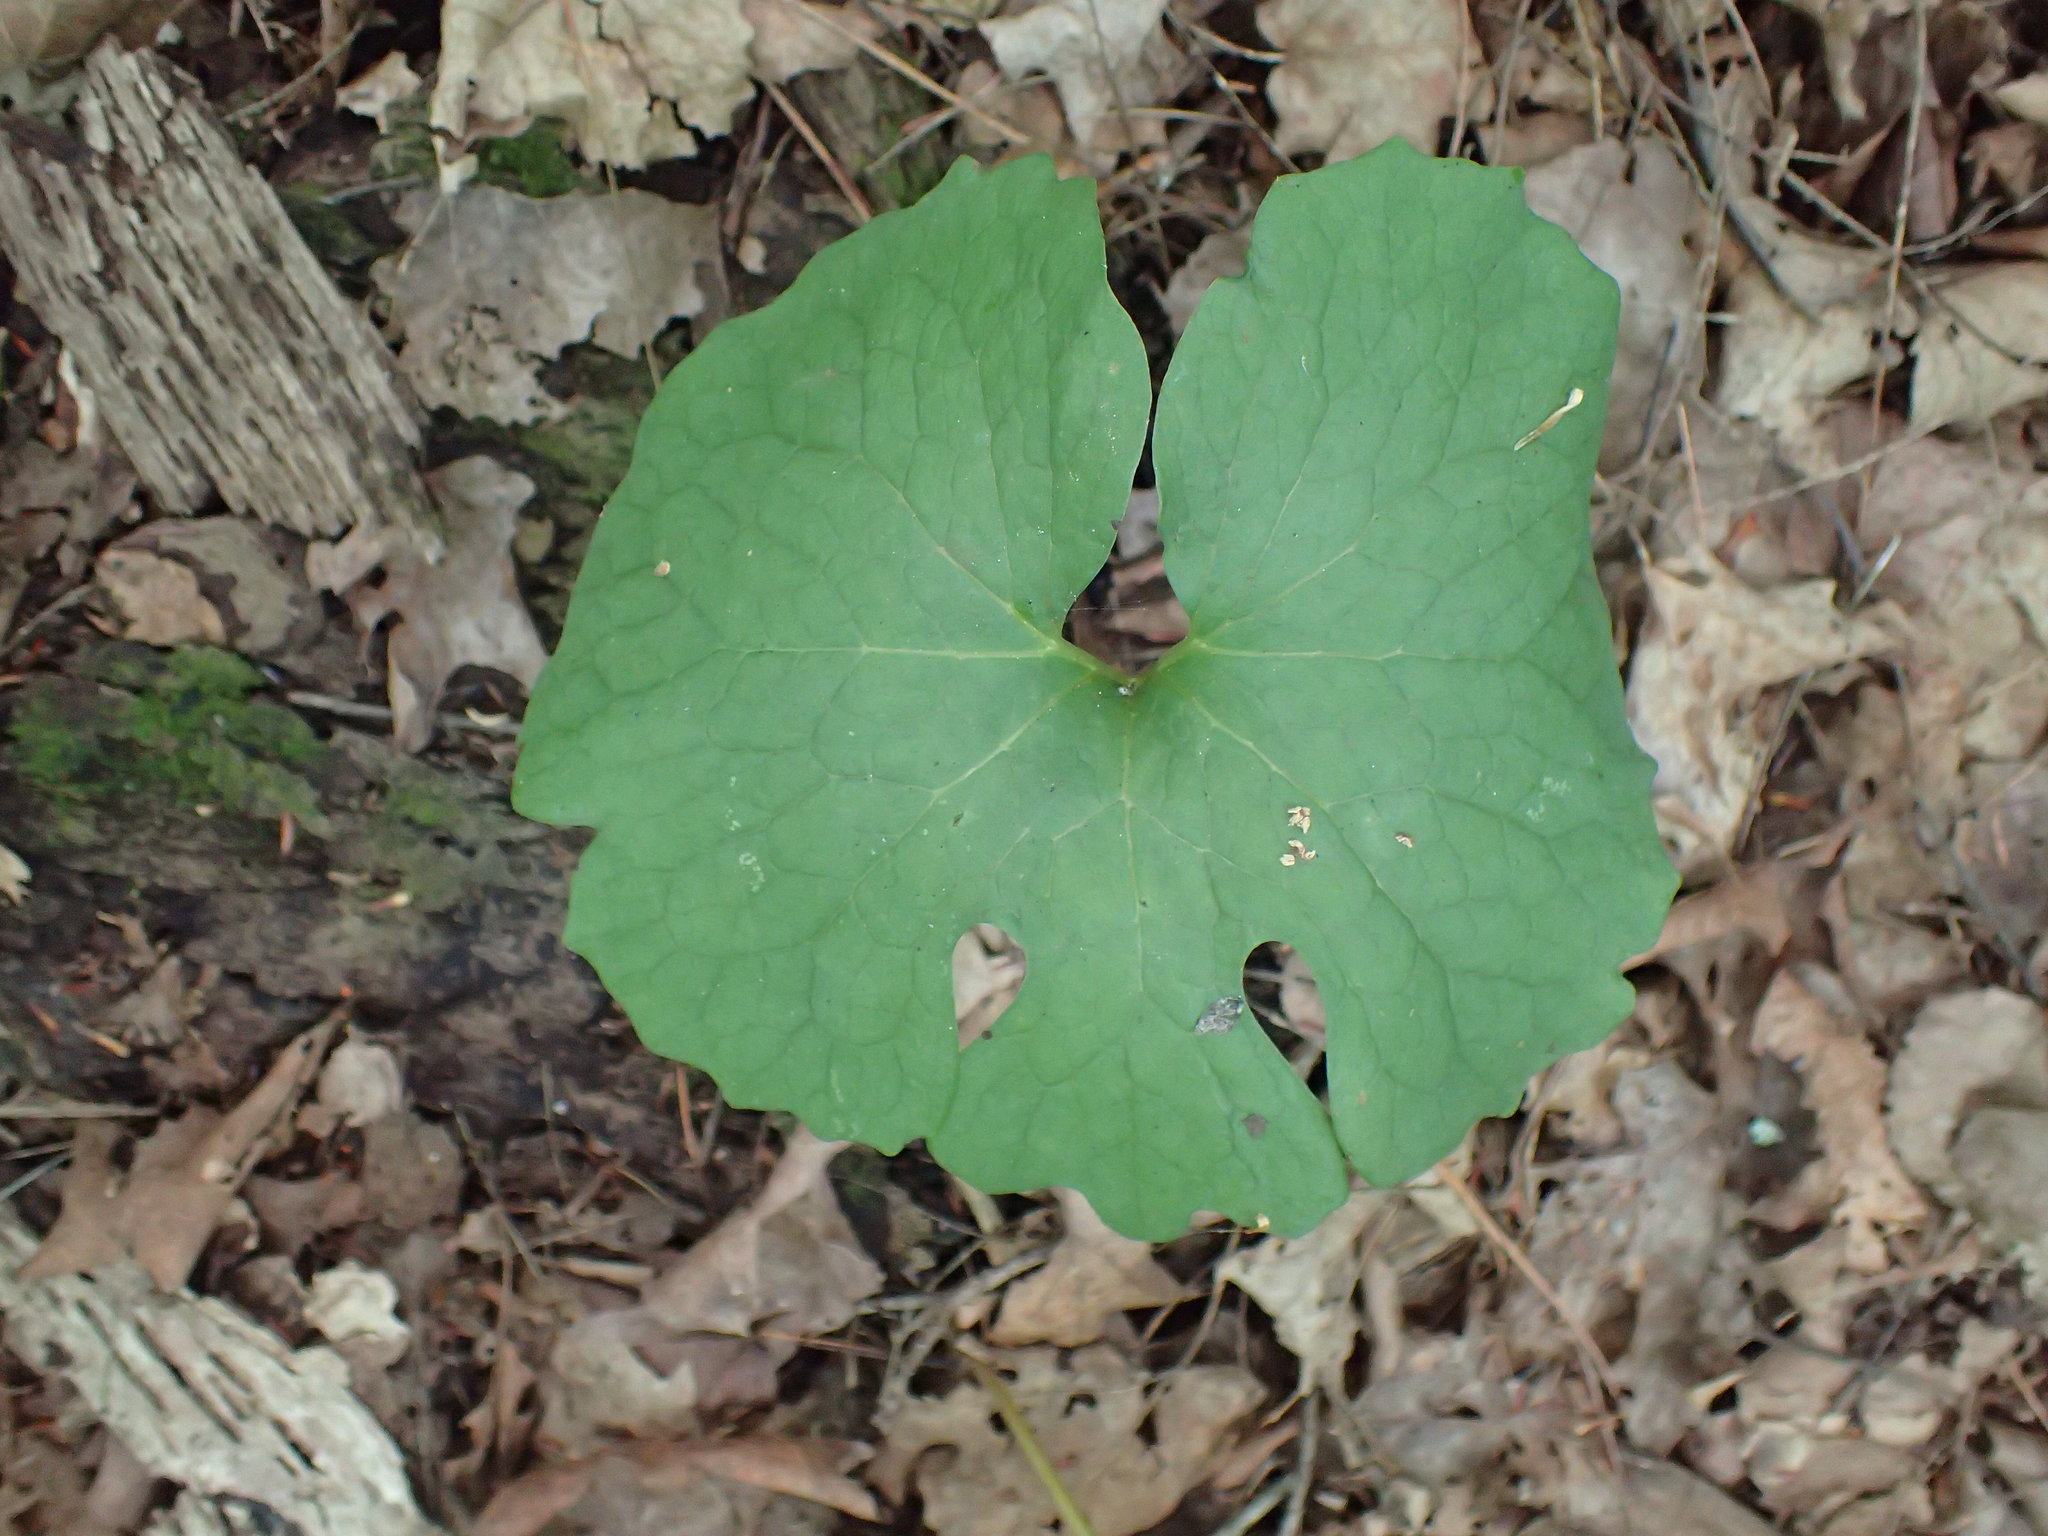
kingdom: Plantae
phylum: Tracheophyta
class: Magnoliopsida
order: Ranunculales
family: Papaveraceae
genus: Sanguinaria
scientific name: Sanguinaria canadensis
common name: Bloodroot
